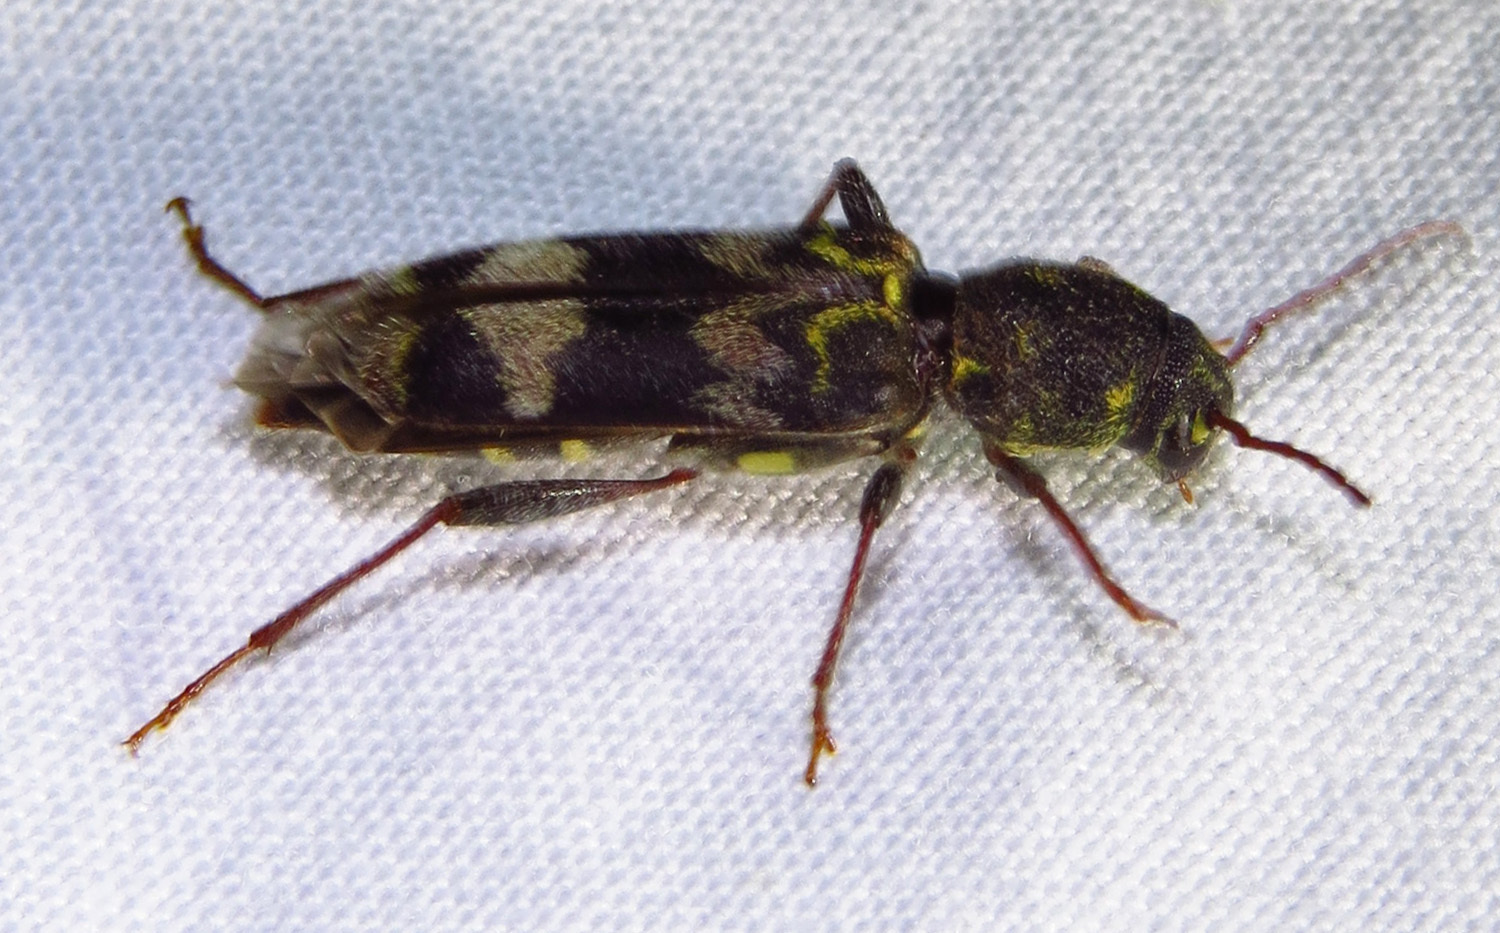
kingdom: Animalia
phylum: Arthropoda
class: Insecta
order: Coleoptera
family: Cerambycidae
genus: Xylotrechus
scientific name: Xylotrechus colonus
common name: Long-horned beetle
